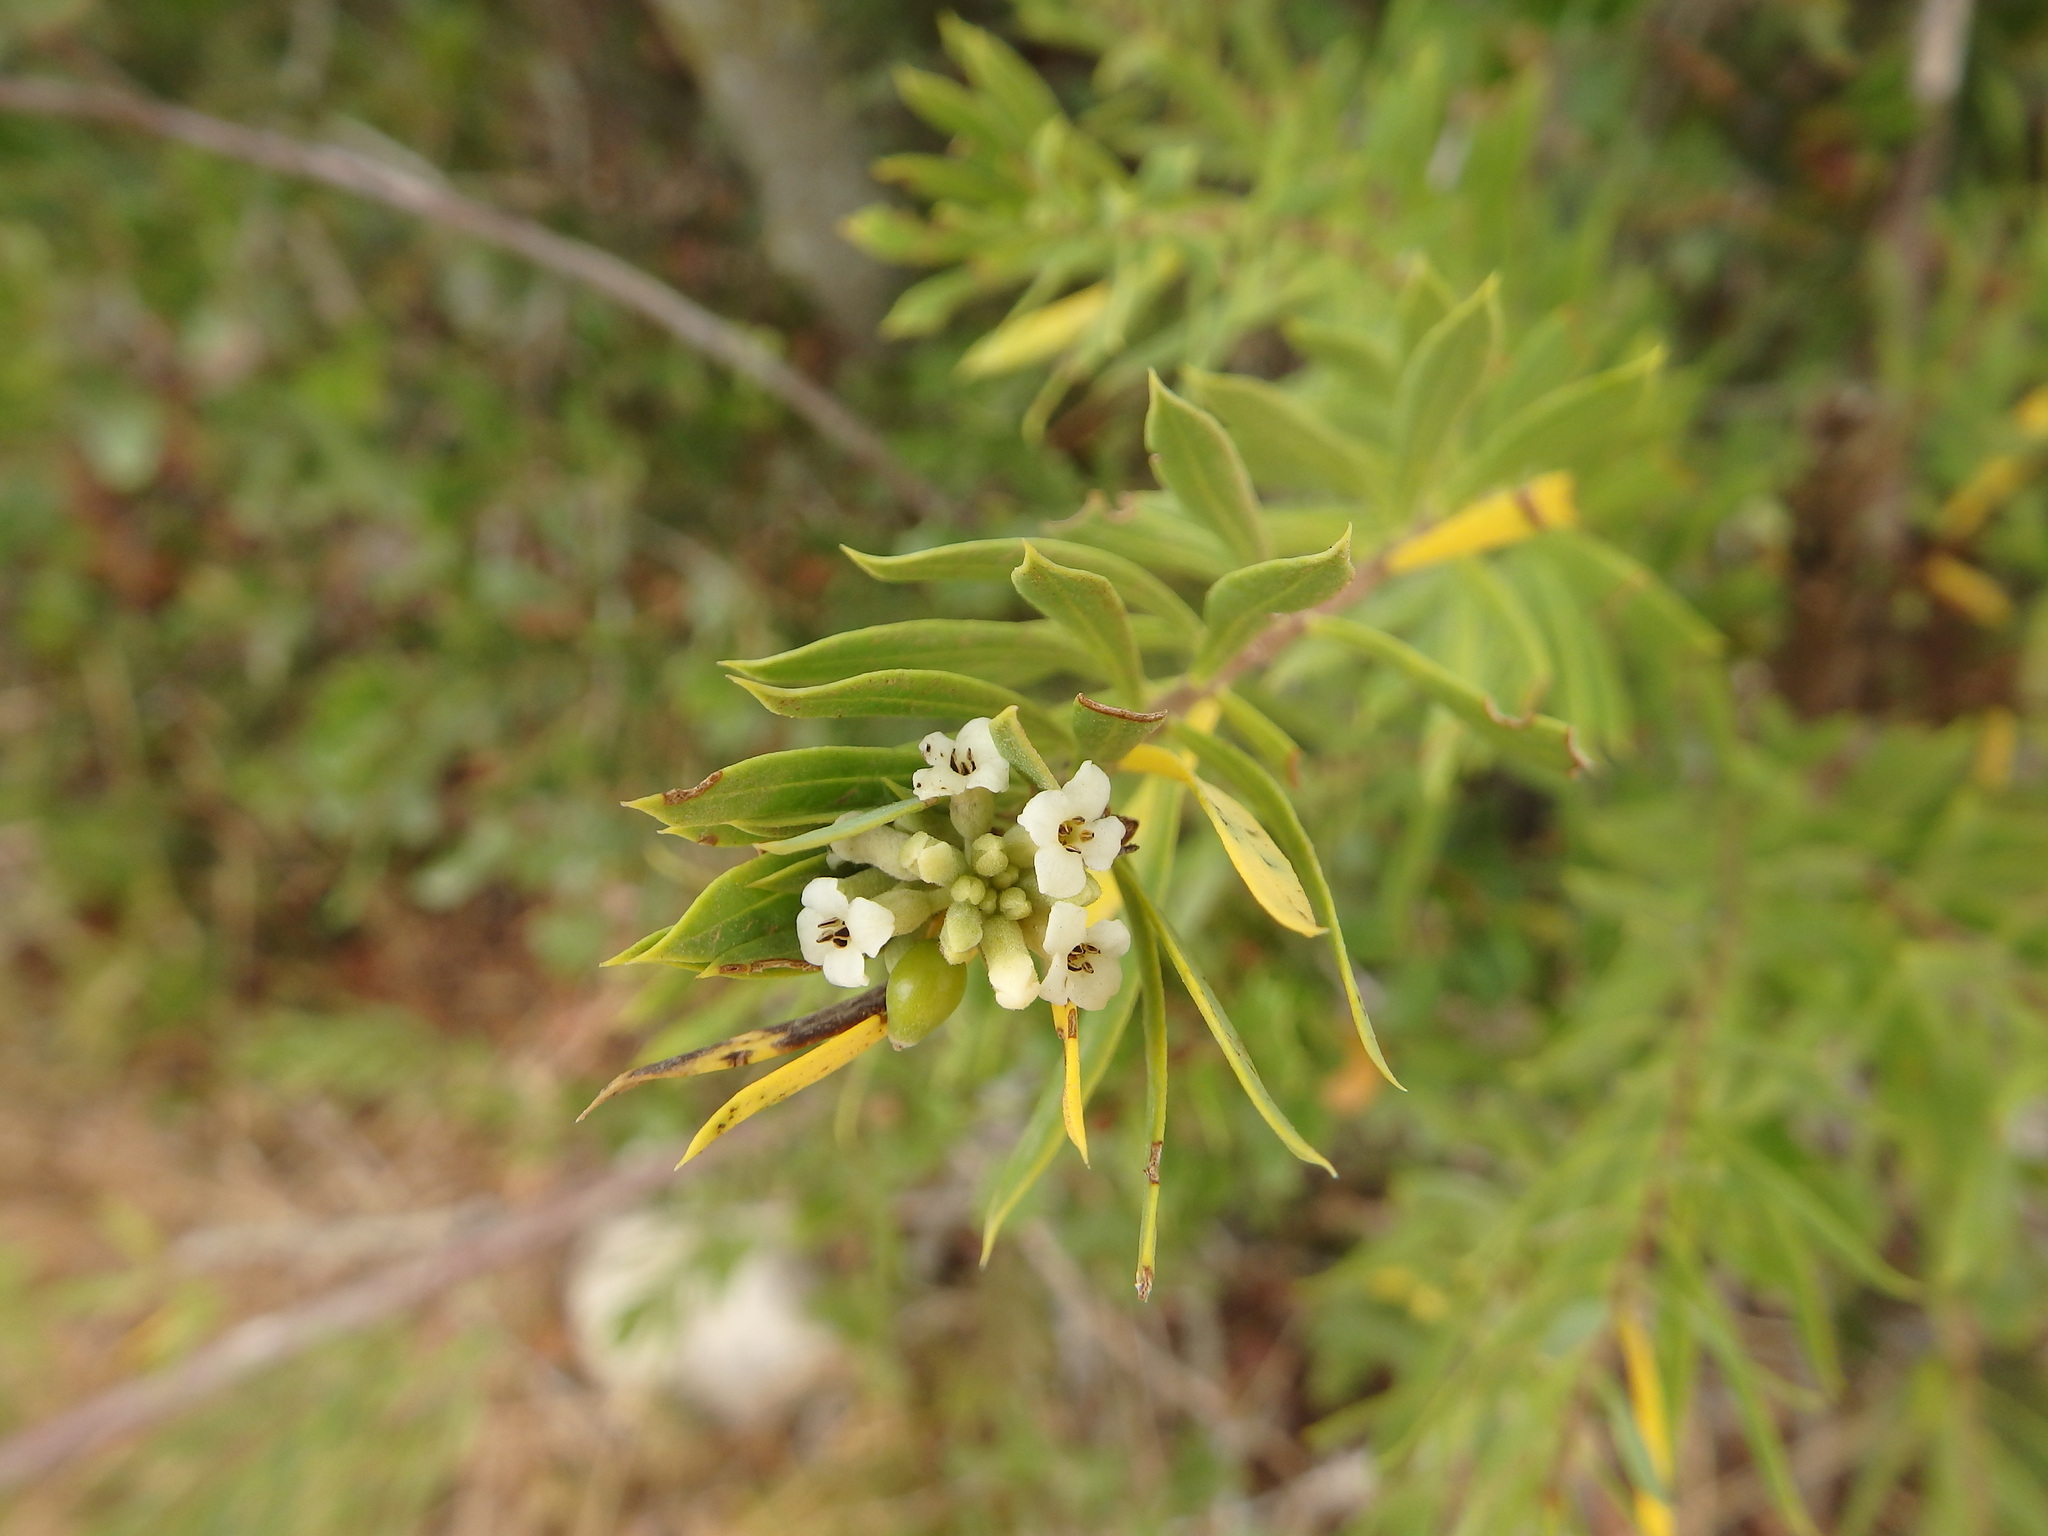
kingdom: Plantae
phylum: Tracheophyta
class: Magnoliopsida
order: Malvales
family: Thymelaeaceae
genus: Daphne
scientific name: Daphne gnidium
